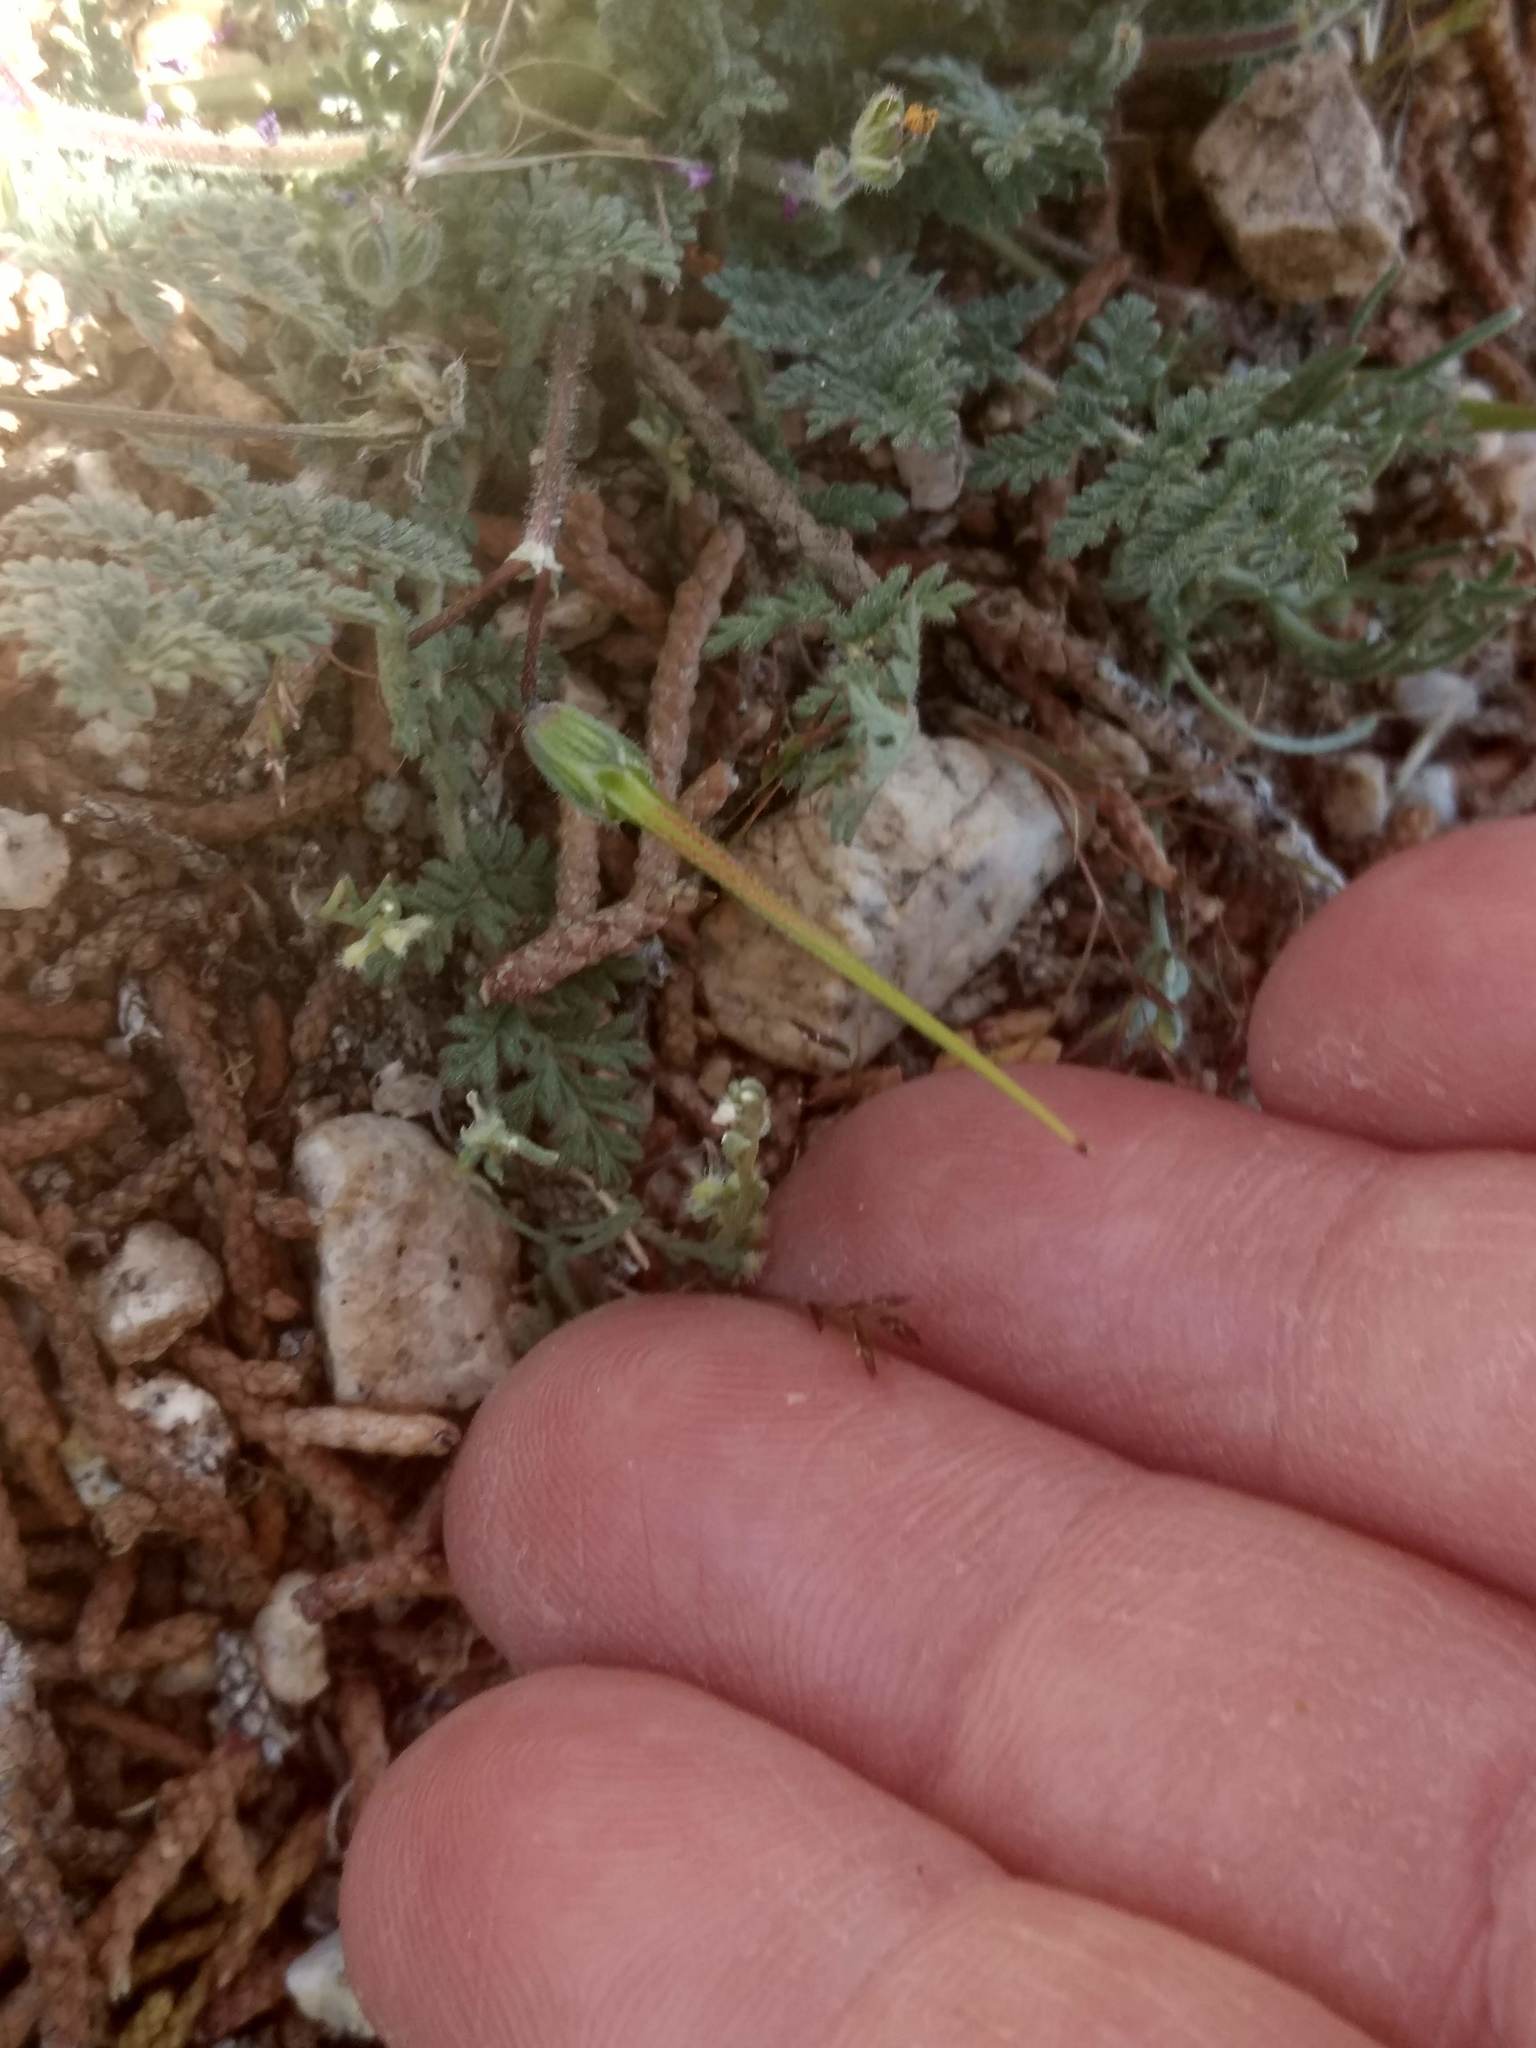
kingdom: Plantae
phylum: Tracheophyta
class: Magnoliopsida
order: Geraniales
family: Geraniaceae
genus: Erodium
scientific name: Erodium cicutarium
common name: Common stork's-bill
